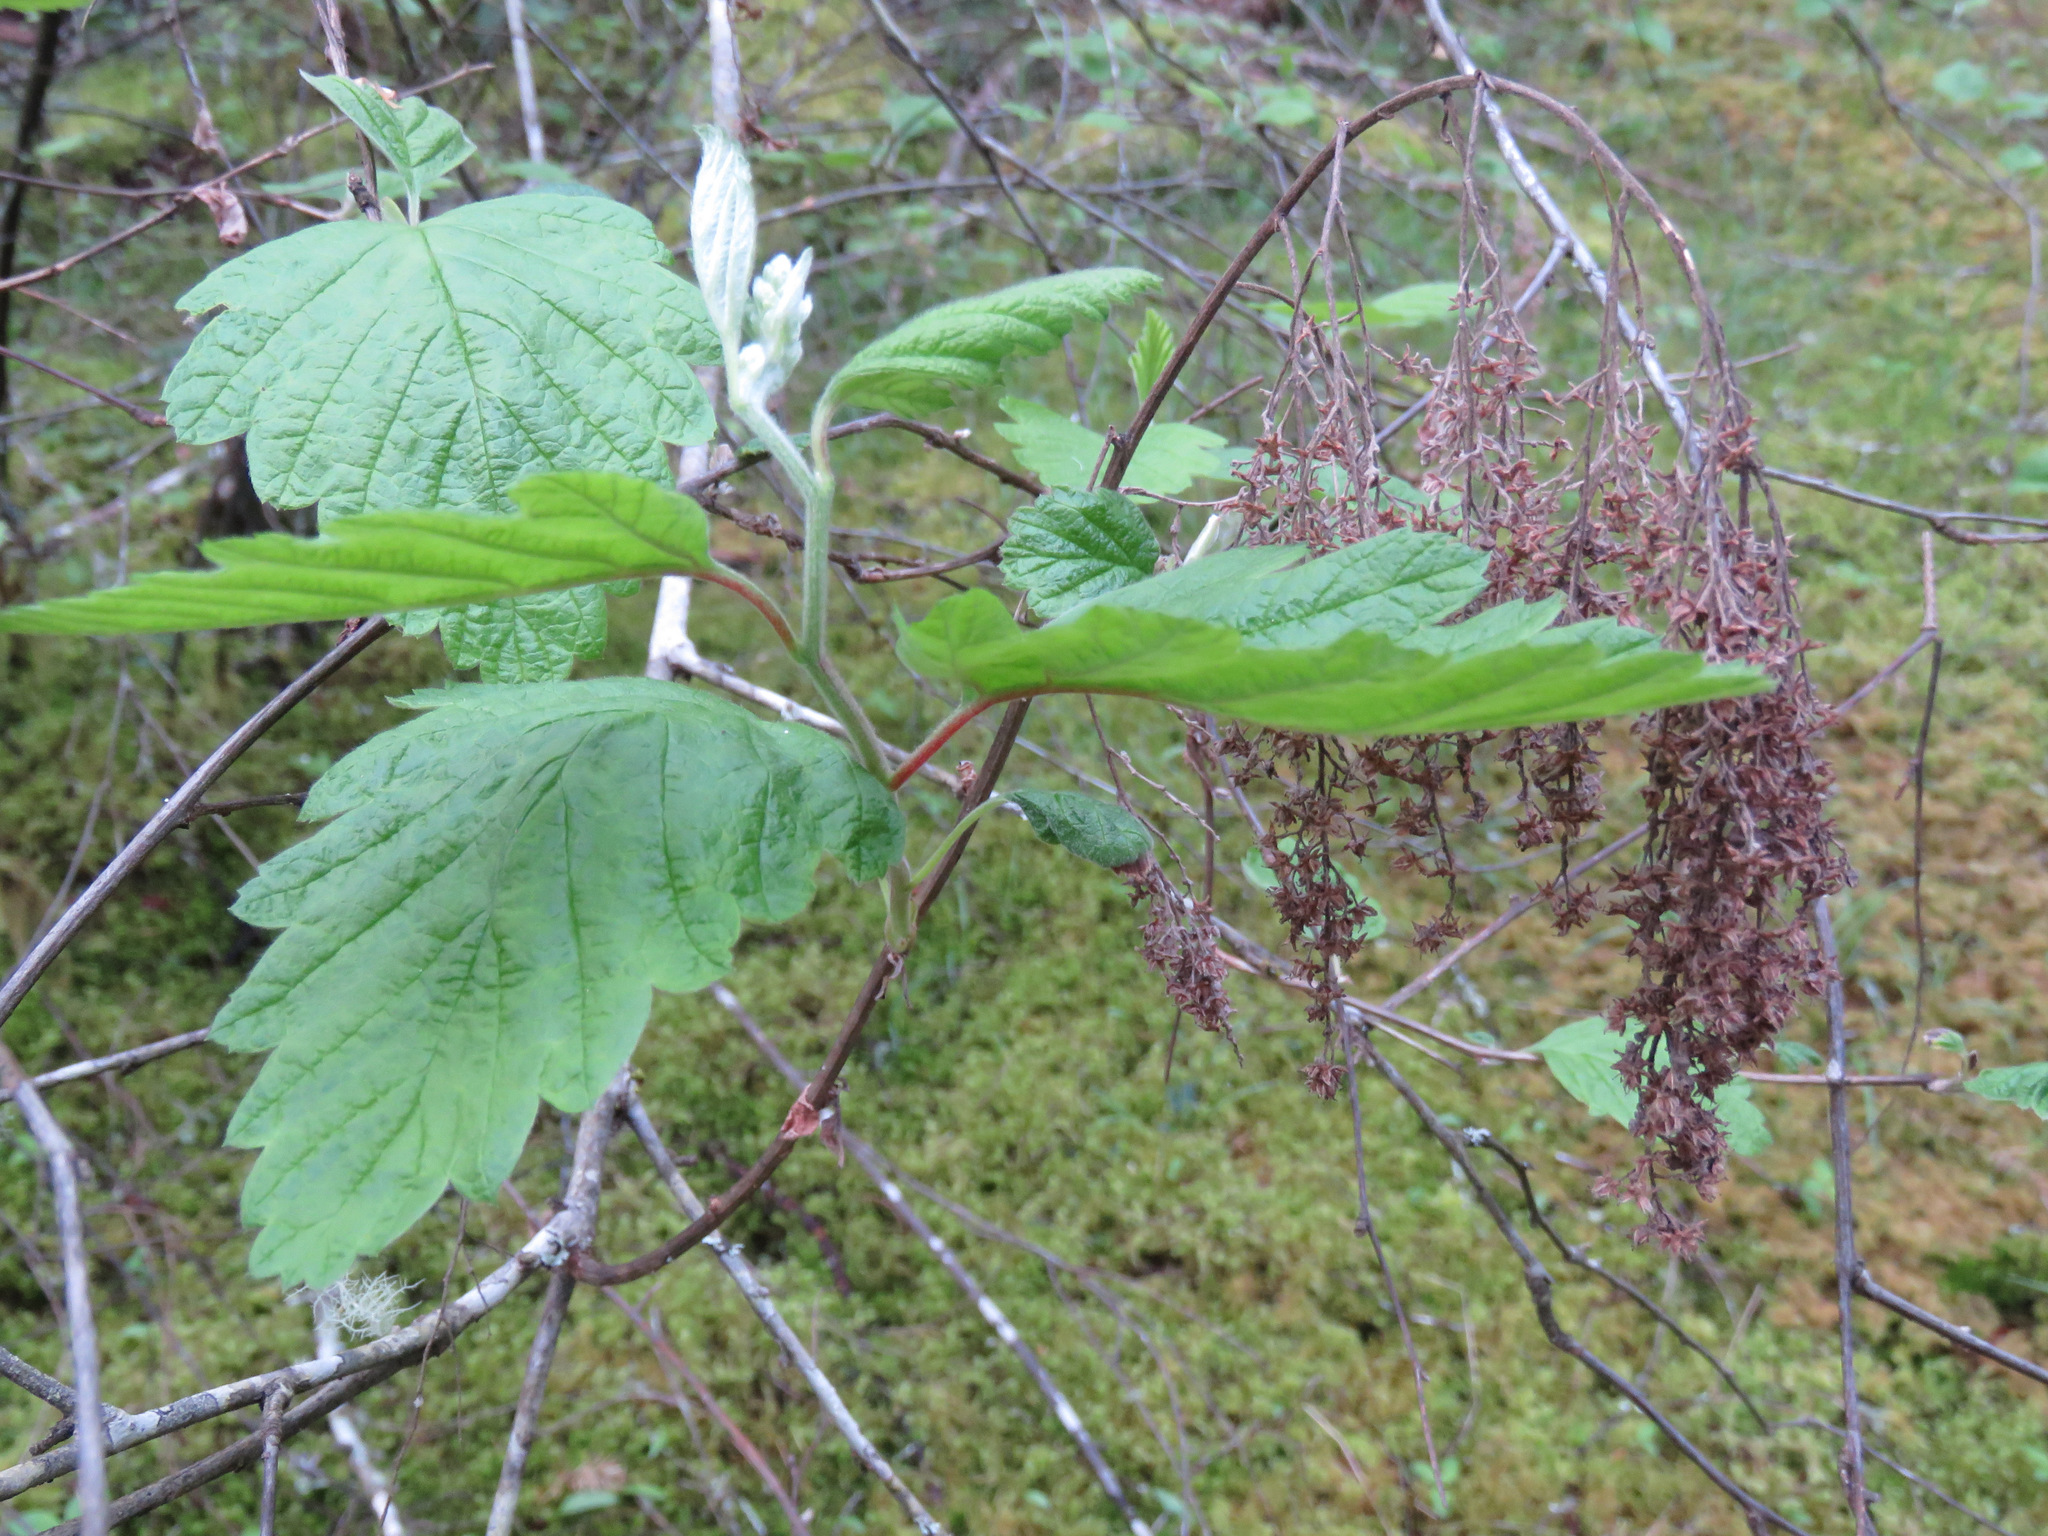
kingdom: Plantae
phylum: Tracheophyta
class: Magnoliopsida
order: Rosales
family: Rosaceae
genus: Holodiscus
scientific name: Holodiscus discolor
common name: Oceanspray
